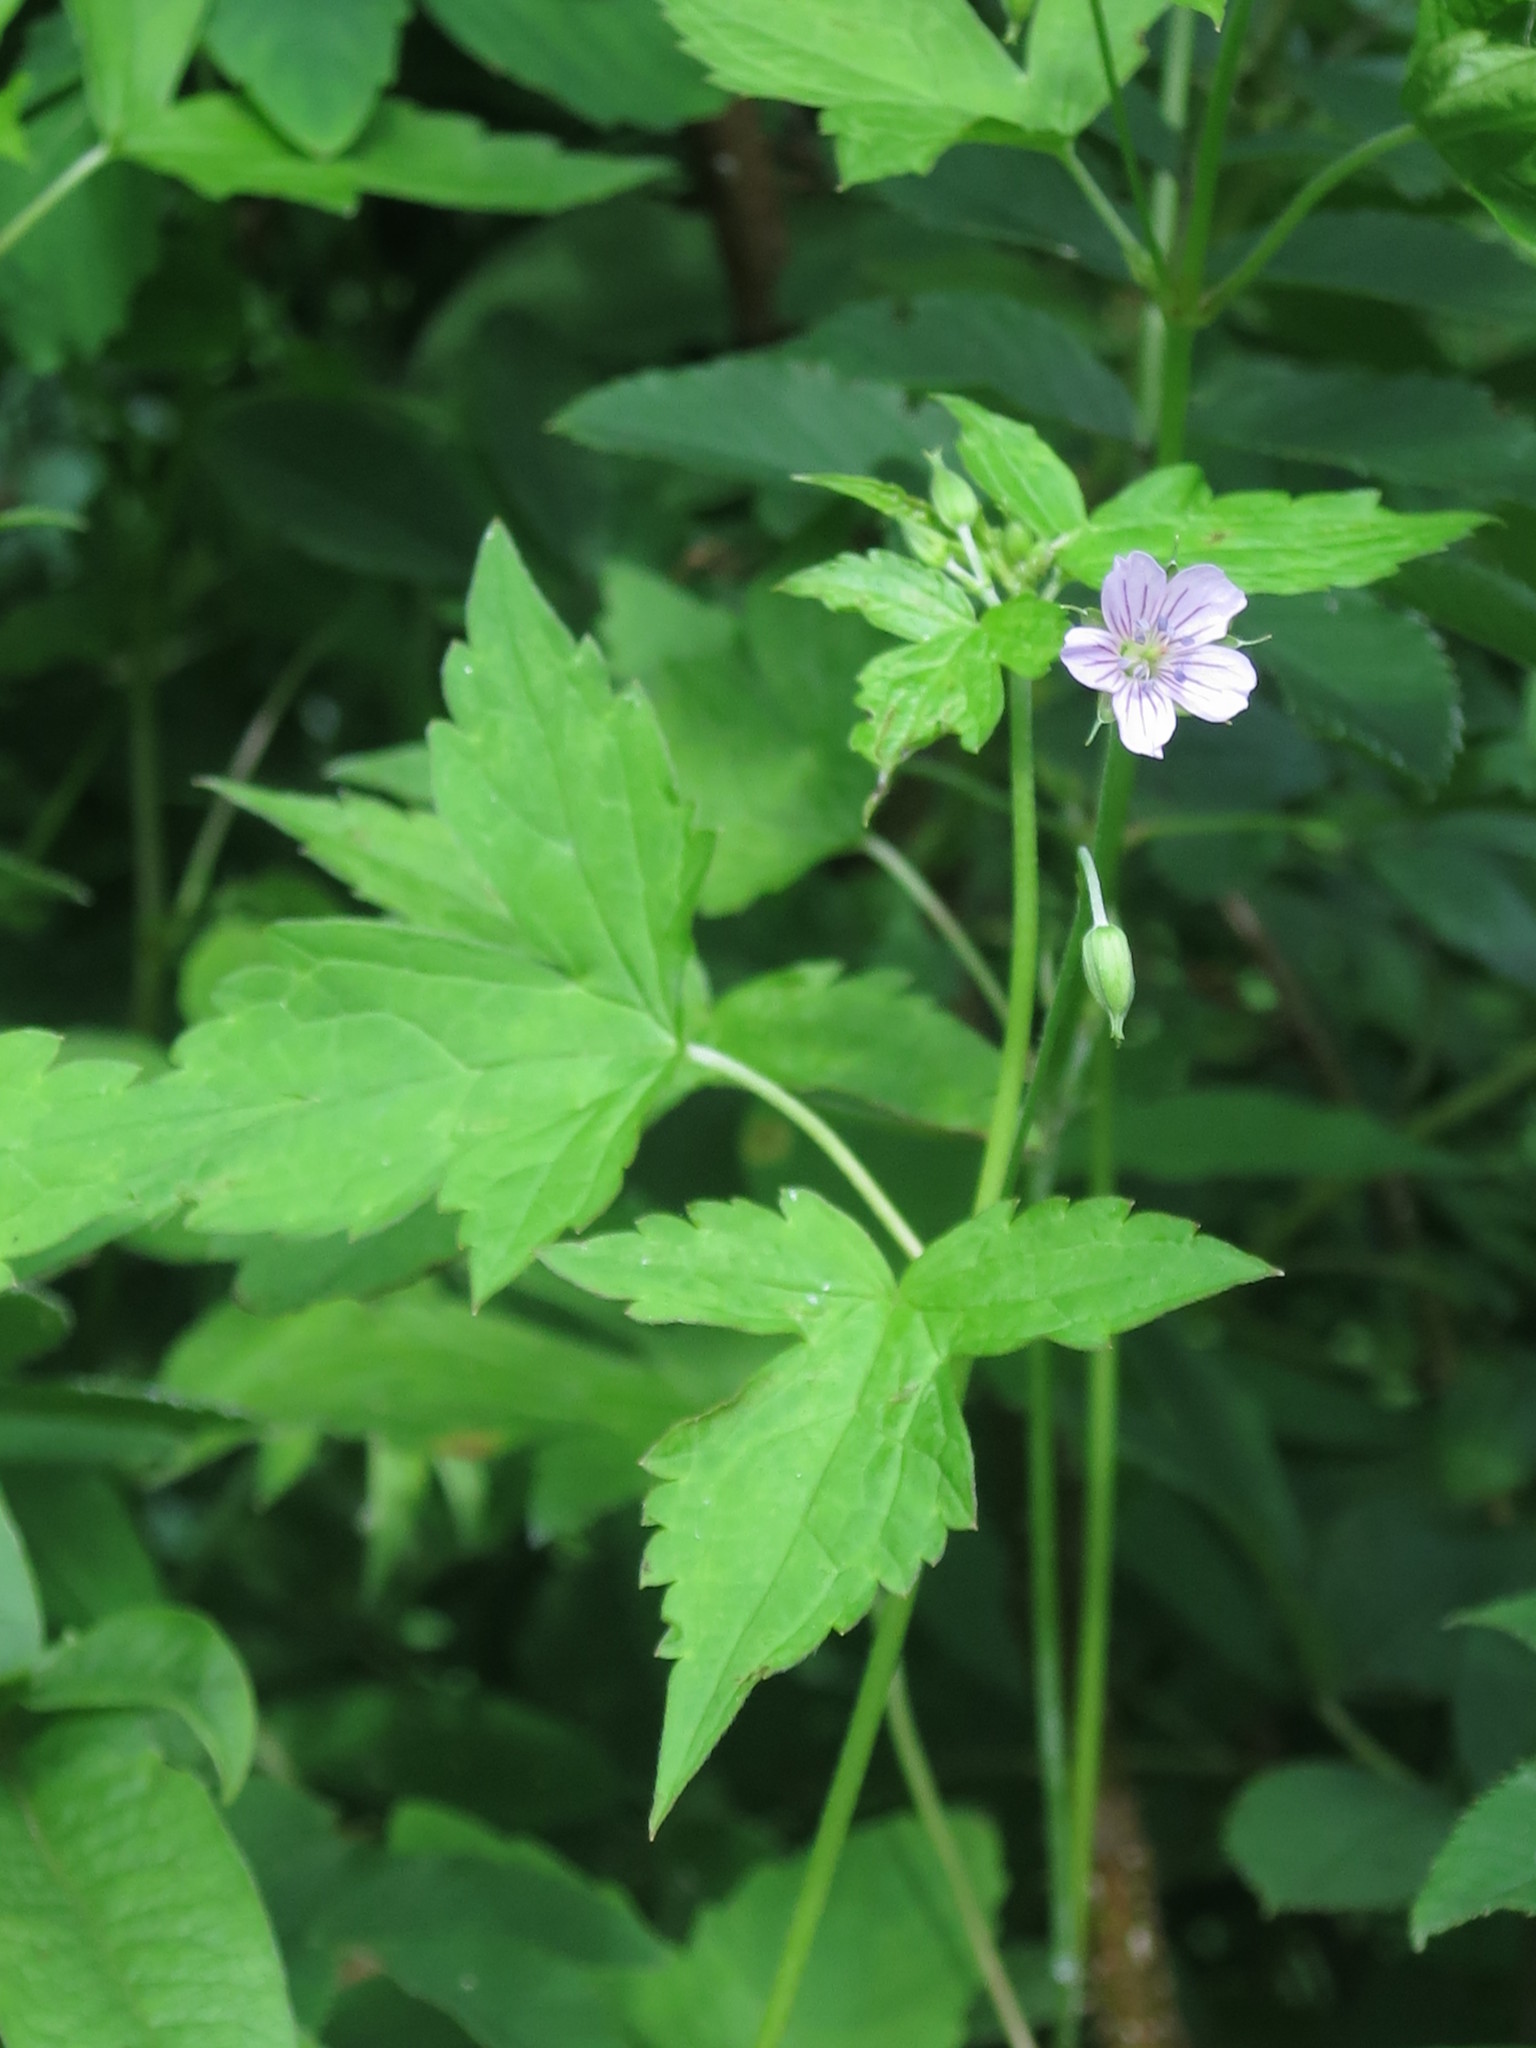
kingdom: Plantae
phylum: Tracheophyta
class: Magnoliopsida
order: Geraniales
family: Geraniaceae
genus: Geranium
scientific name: Geranium sibiricum
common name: Siberian crane's-bill
